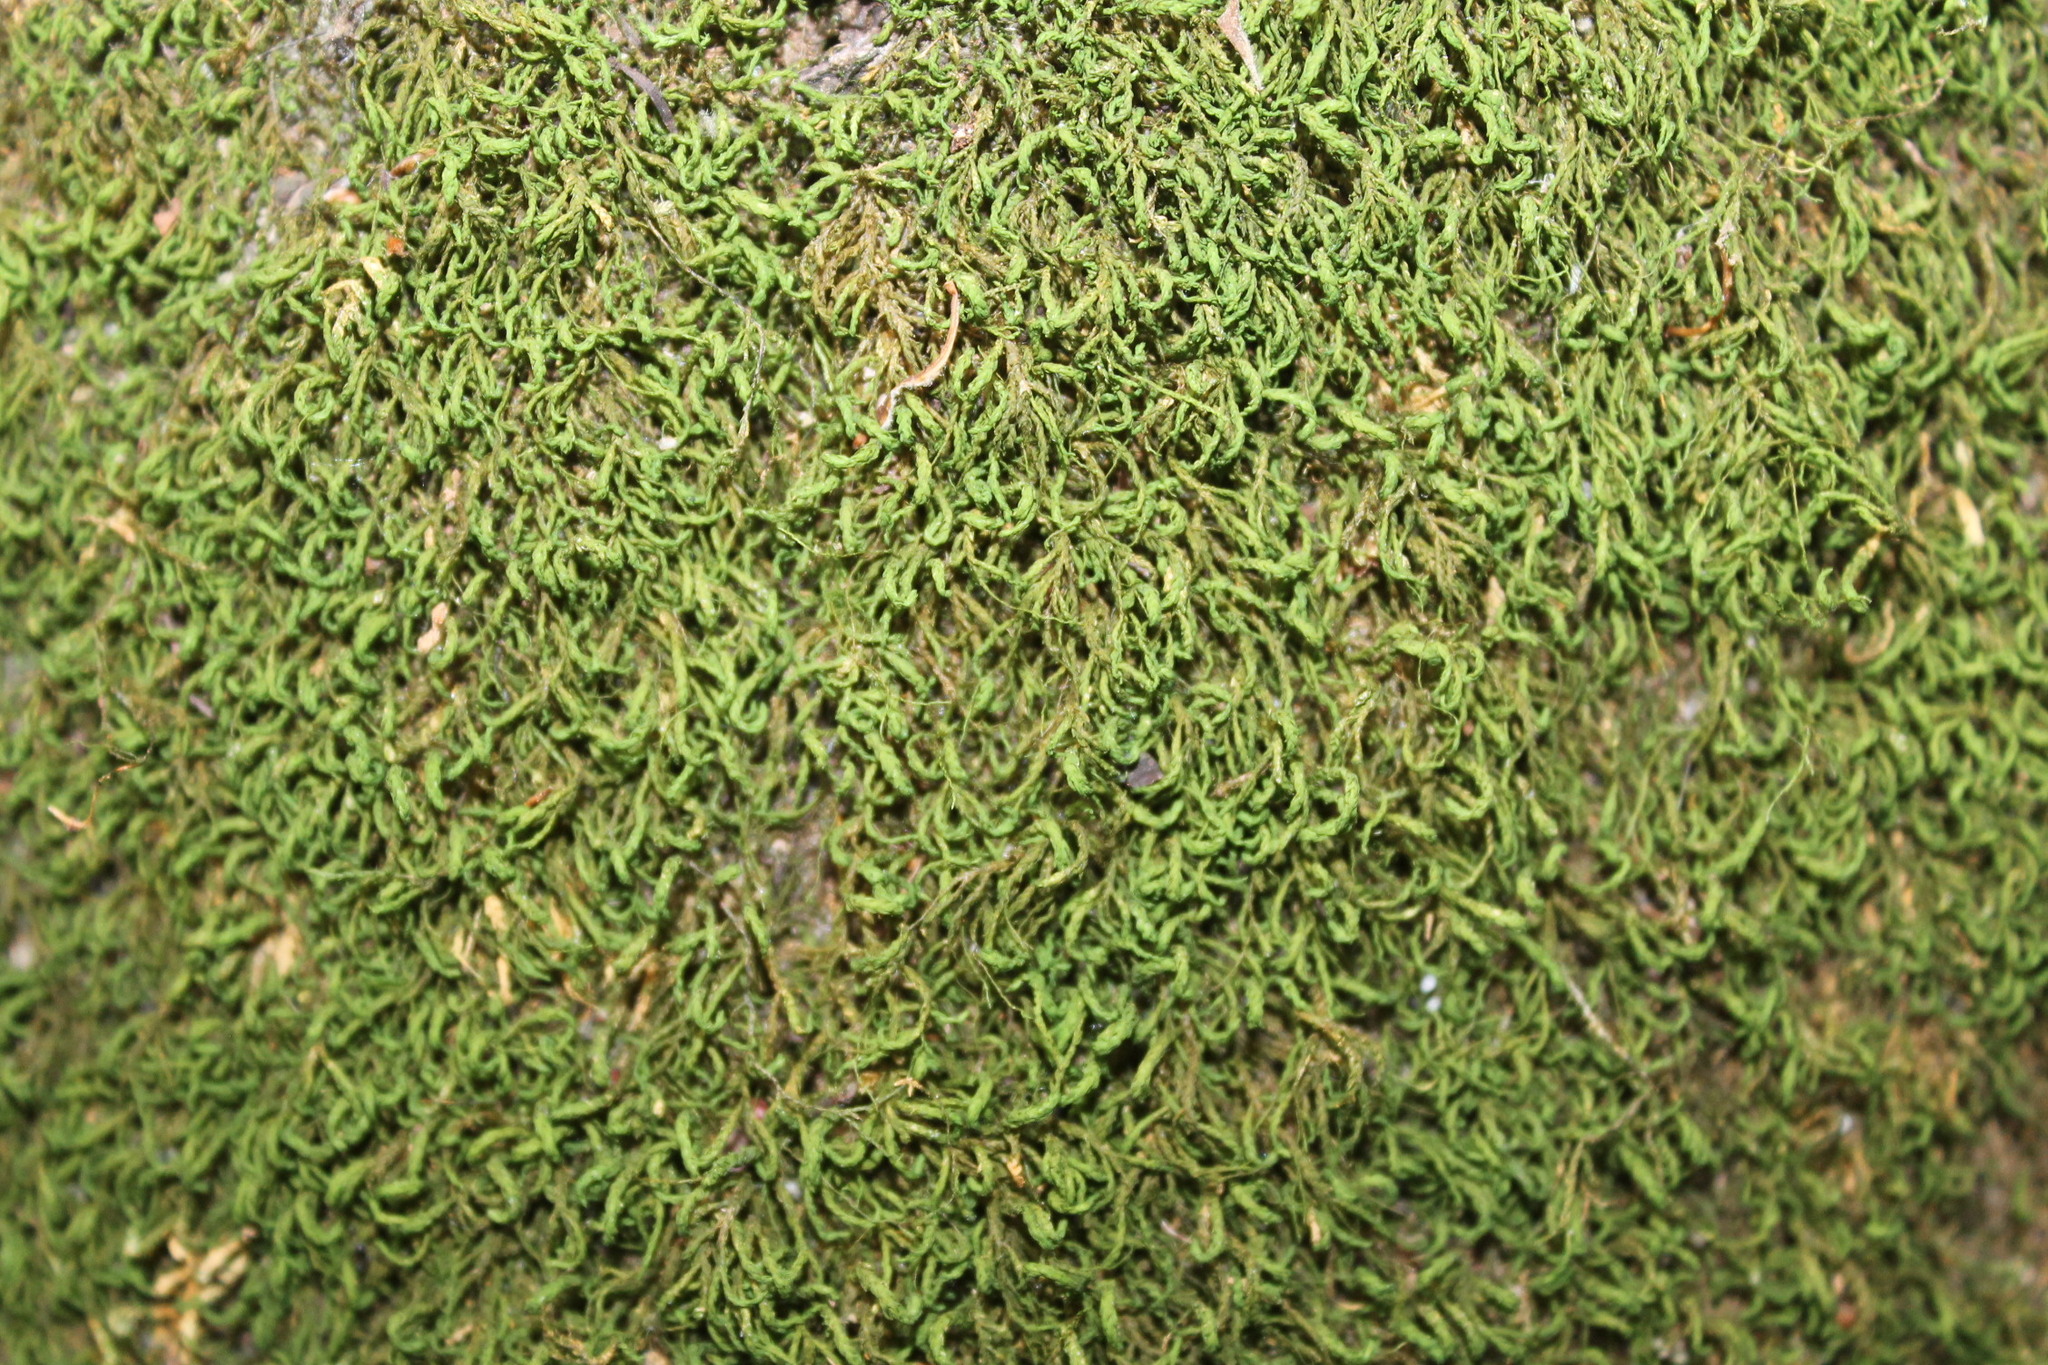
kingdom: Plantae
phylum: Bryophyta
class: Bryopsida
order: Hypnales
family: Neckeraceae
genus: Pseudanomodon
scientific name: Pseudanomodon attenuatus
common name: Tree-skirt moss
